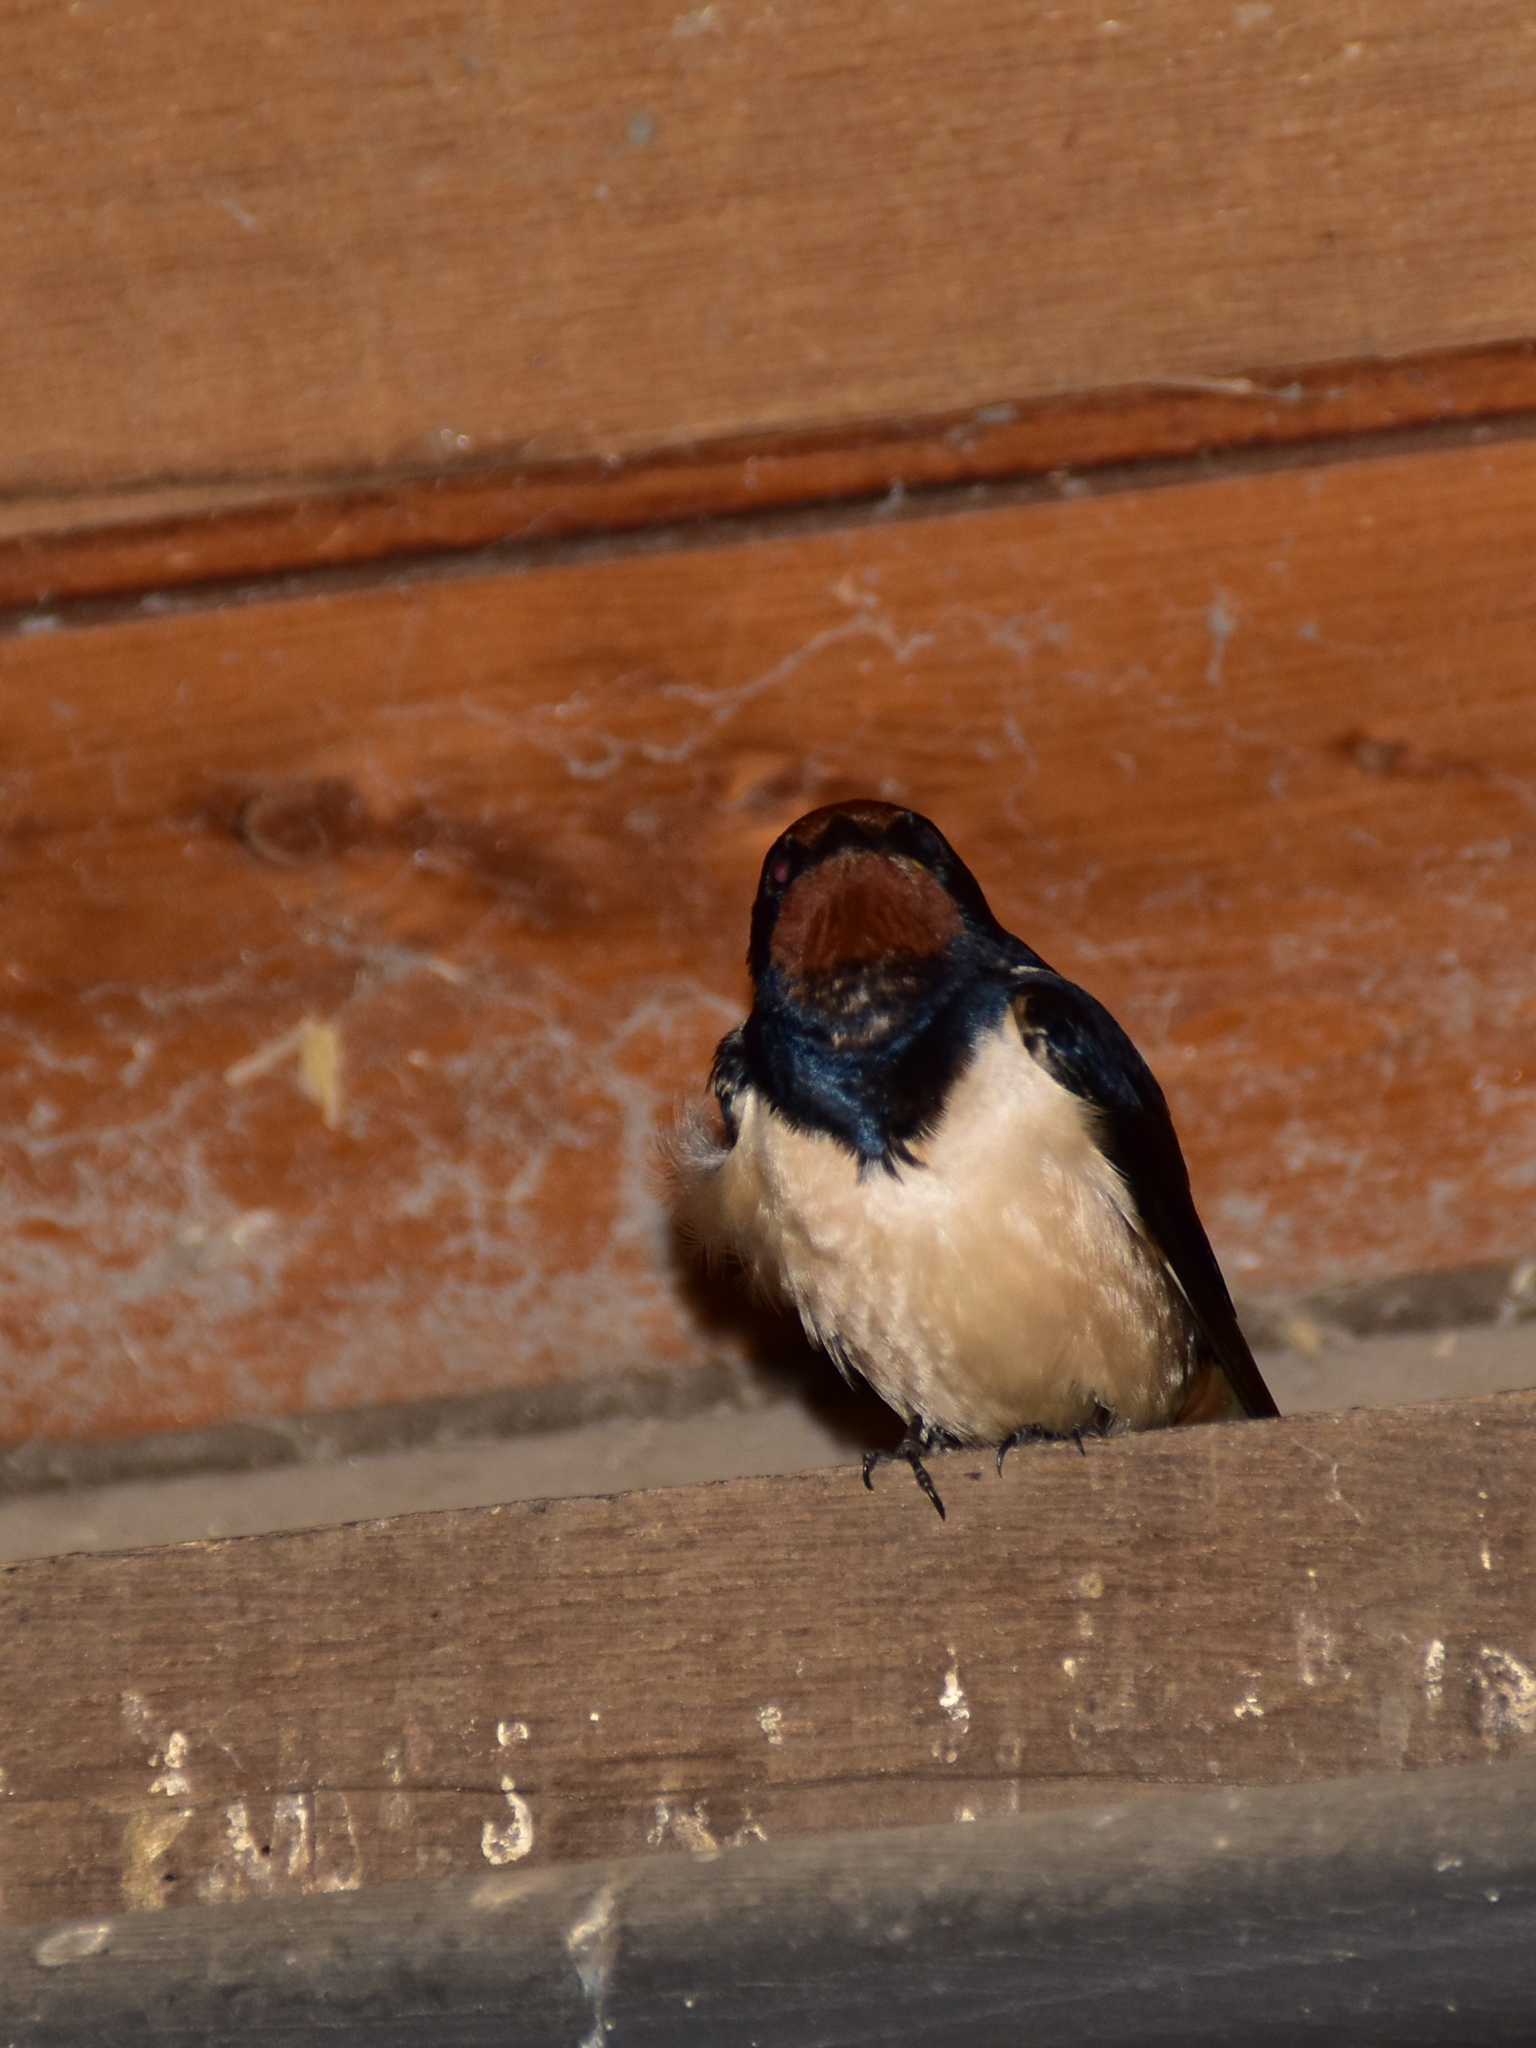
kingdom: Animalia
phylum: Chordata
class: Aves
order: Passeriformes
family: Hirundinidae
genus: Hirundo
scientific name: Hirundo rustica
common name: Barn swallow
